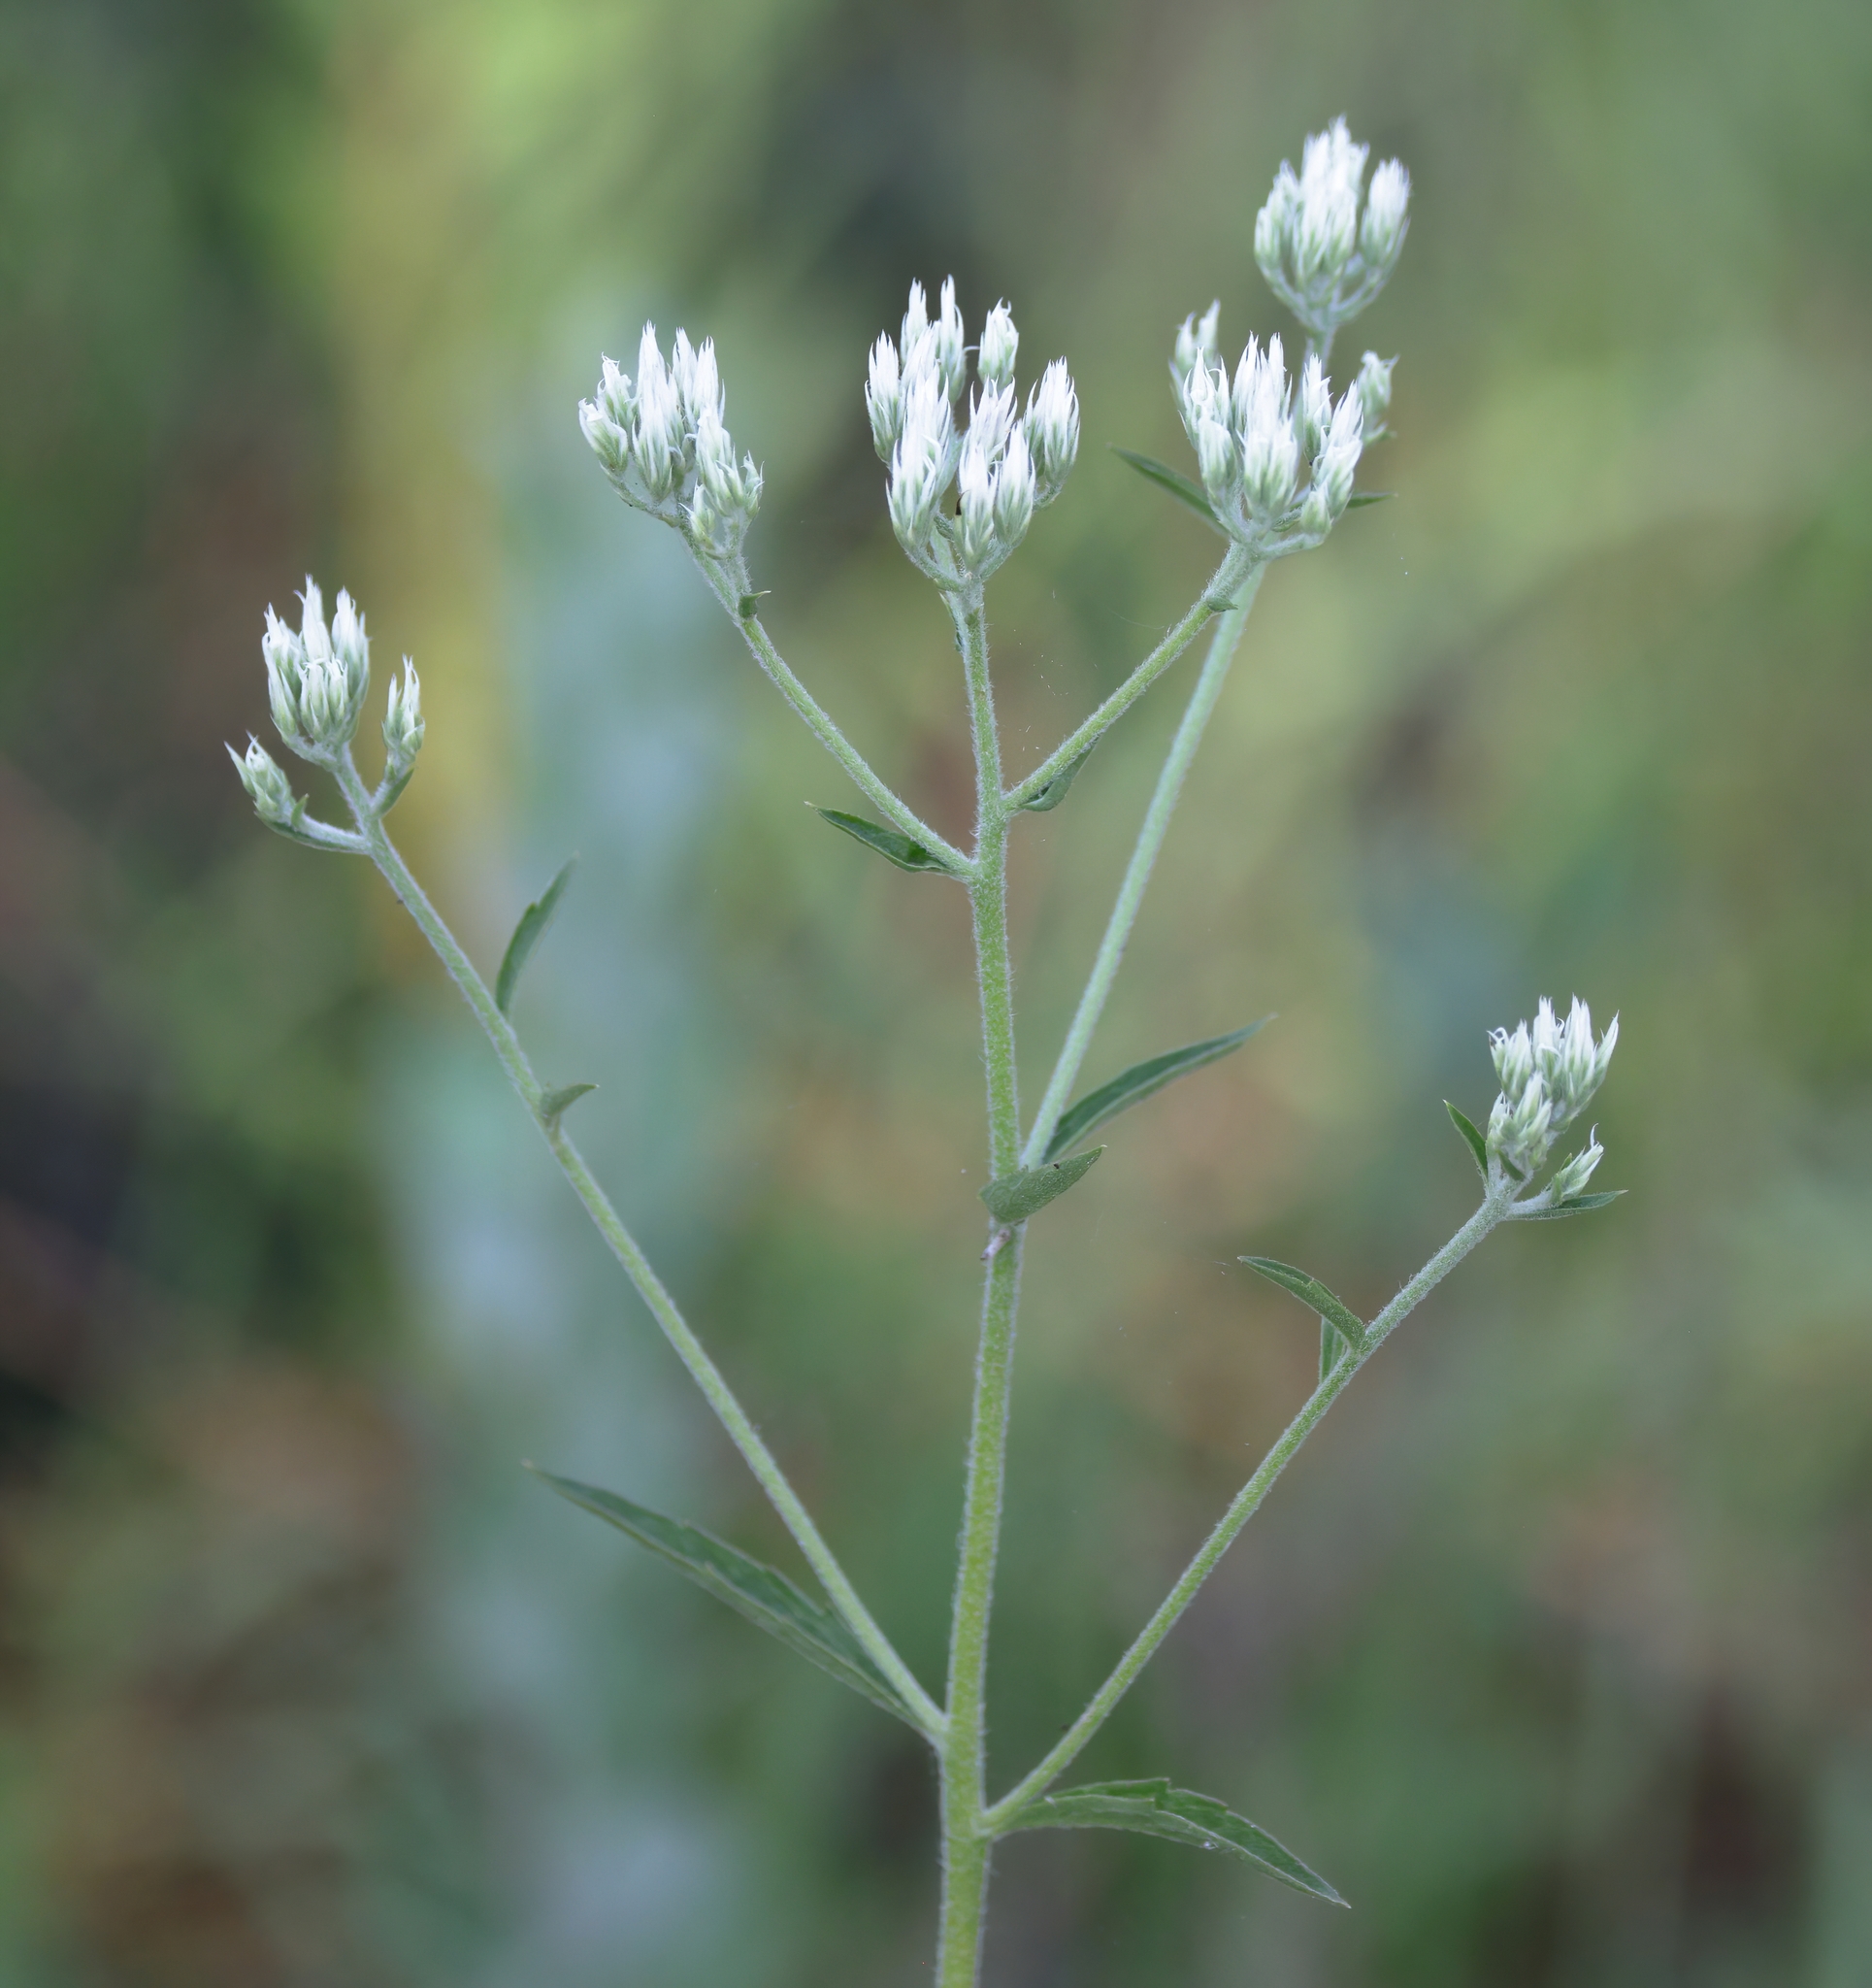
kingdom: Plantae
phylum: Tracheophyta
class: Magnoliopsida
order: Asterales
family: Asteraceae
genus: Eupatorium
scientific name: Eupatorium album
